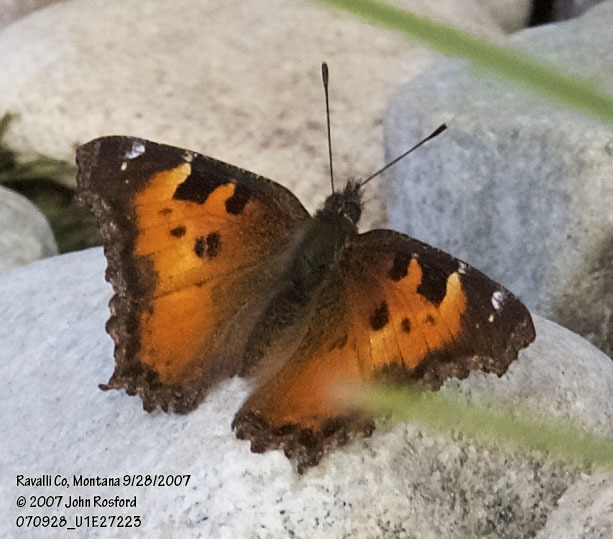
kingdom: Animalia
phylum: Arthropoda
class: Insecta
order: Lepidoptera
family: Nymphalidae
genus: Nymphalis
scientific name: Nymphalis californica
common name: California tortoiseshell
